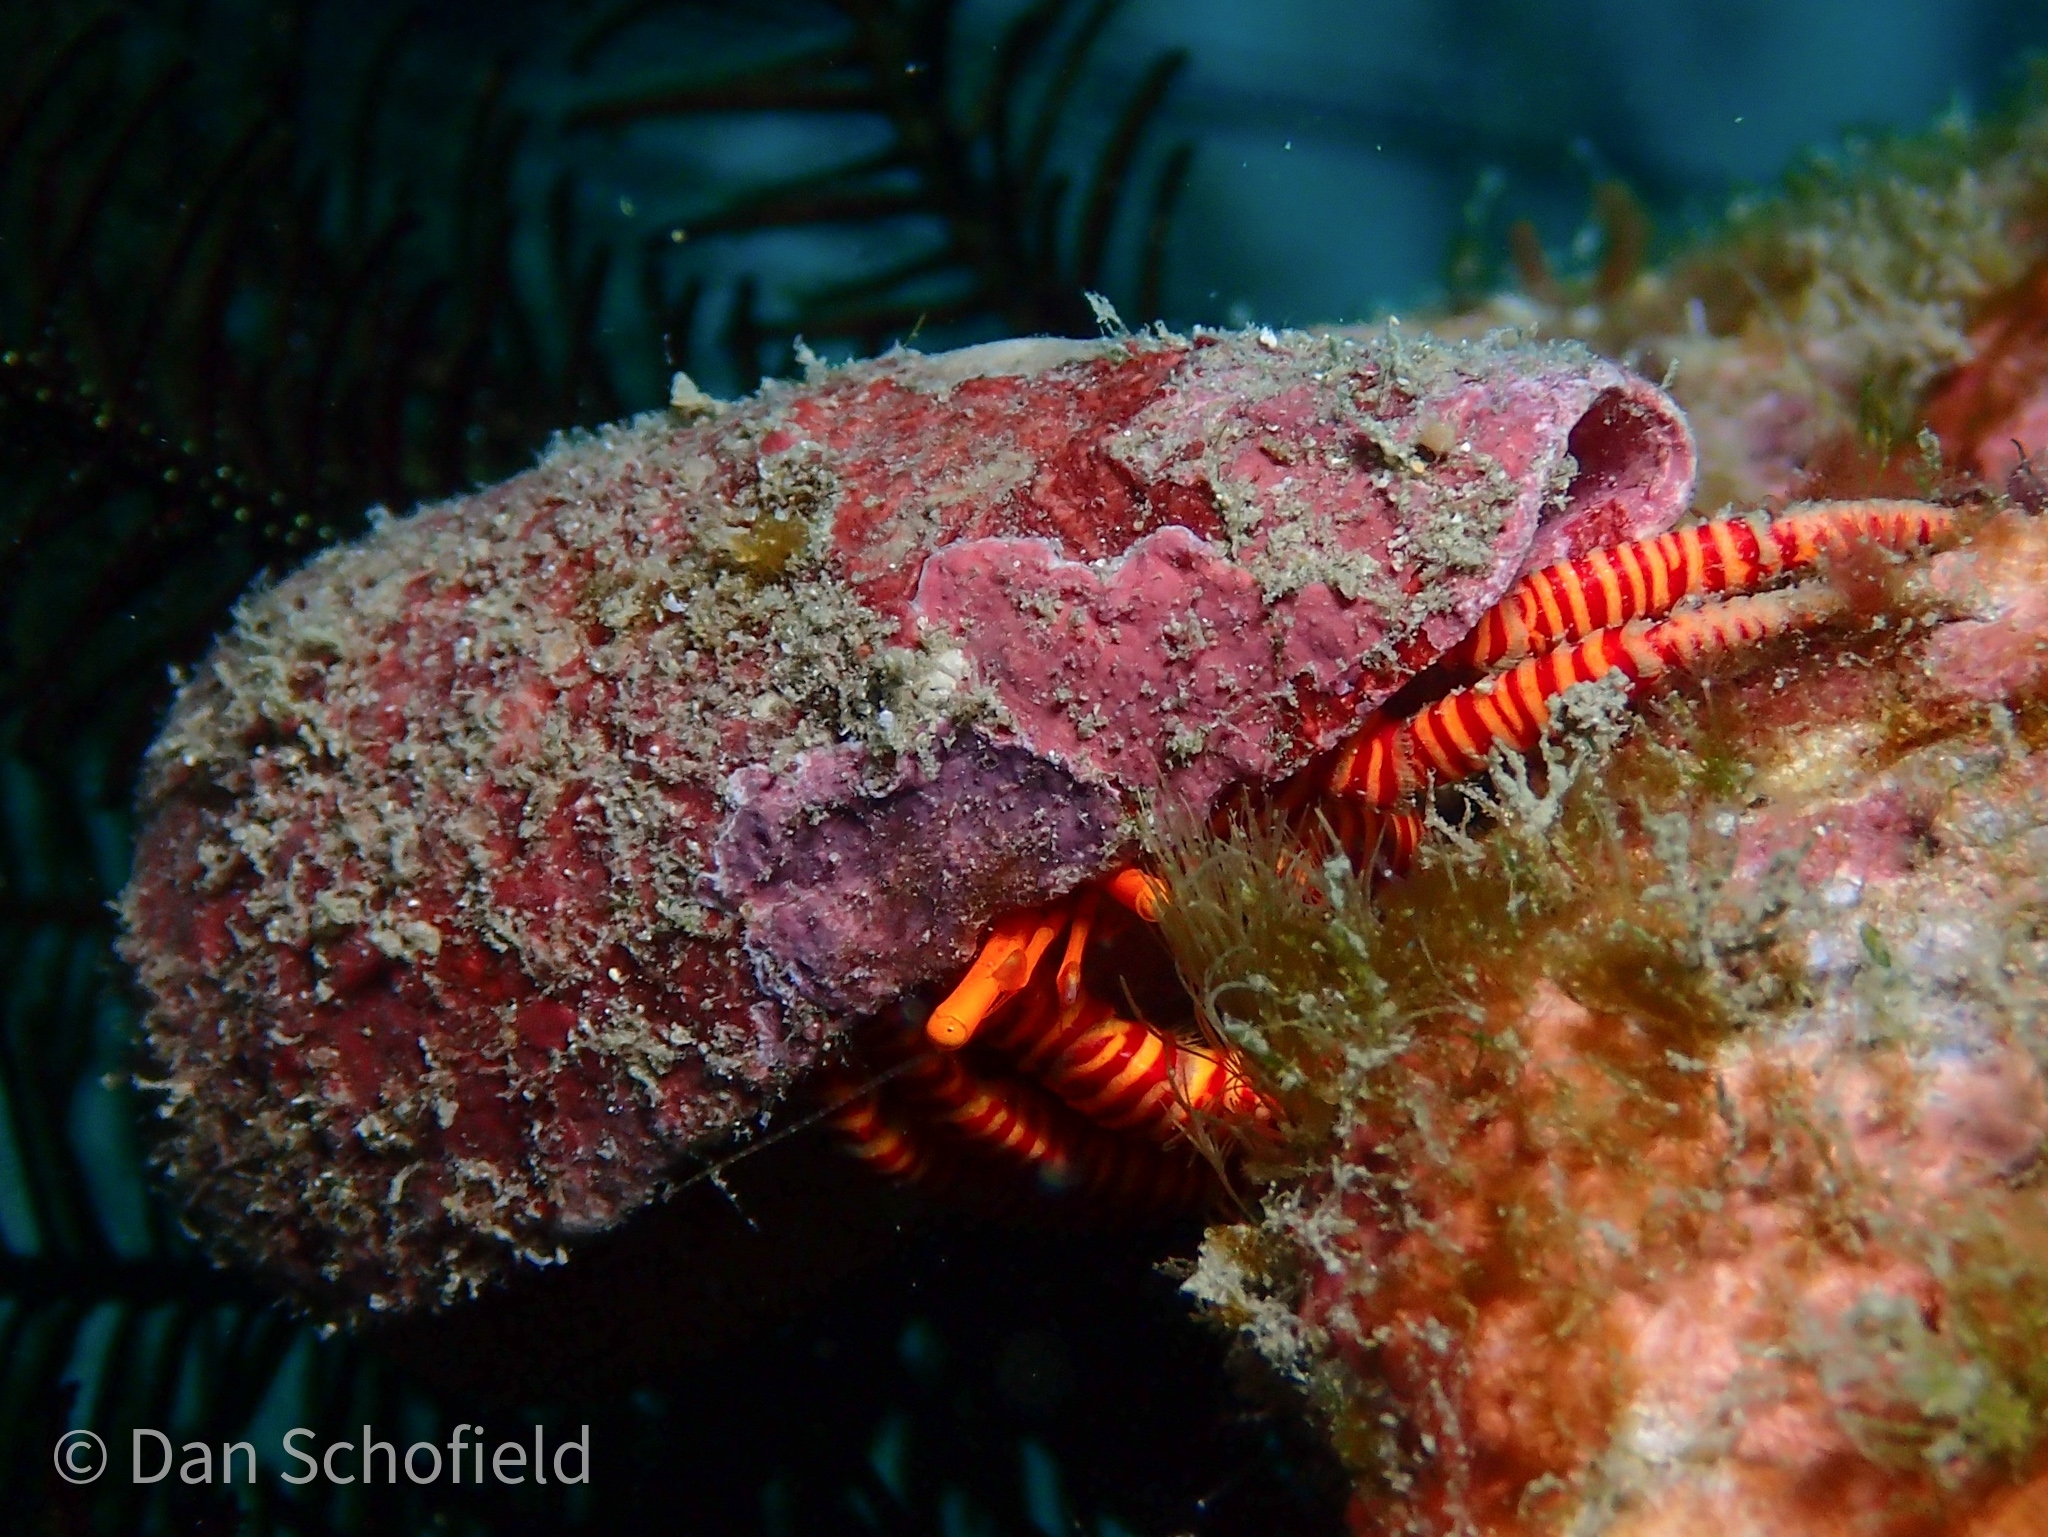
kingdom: Animalia
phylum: Arthropoda
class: Malacostraca
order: Decapoda
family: Diogenidae
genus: Ciliopagurus
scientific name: Ciliopagurus strigatus
